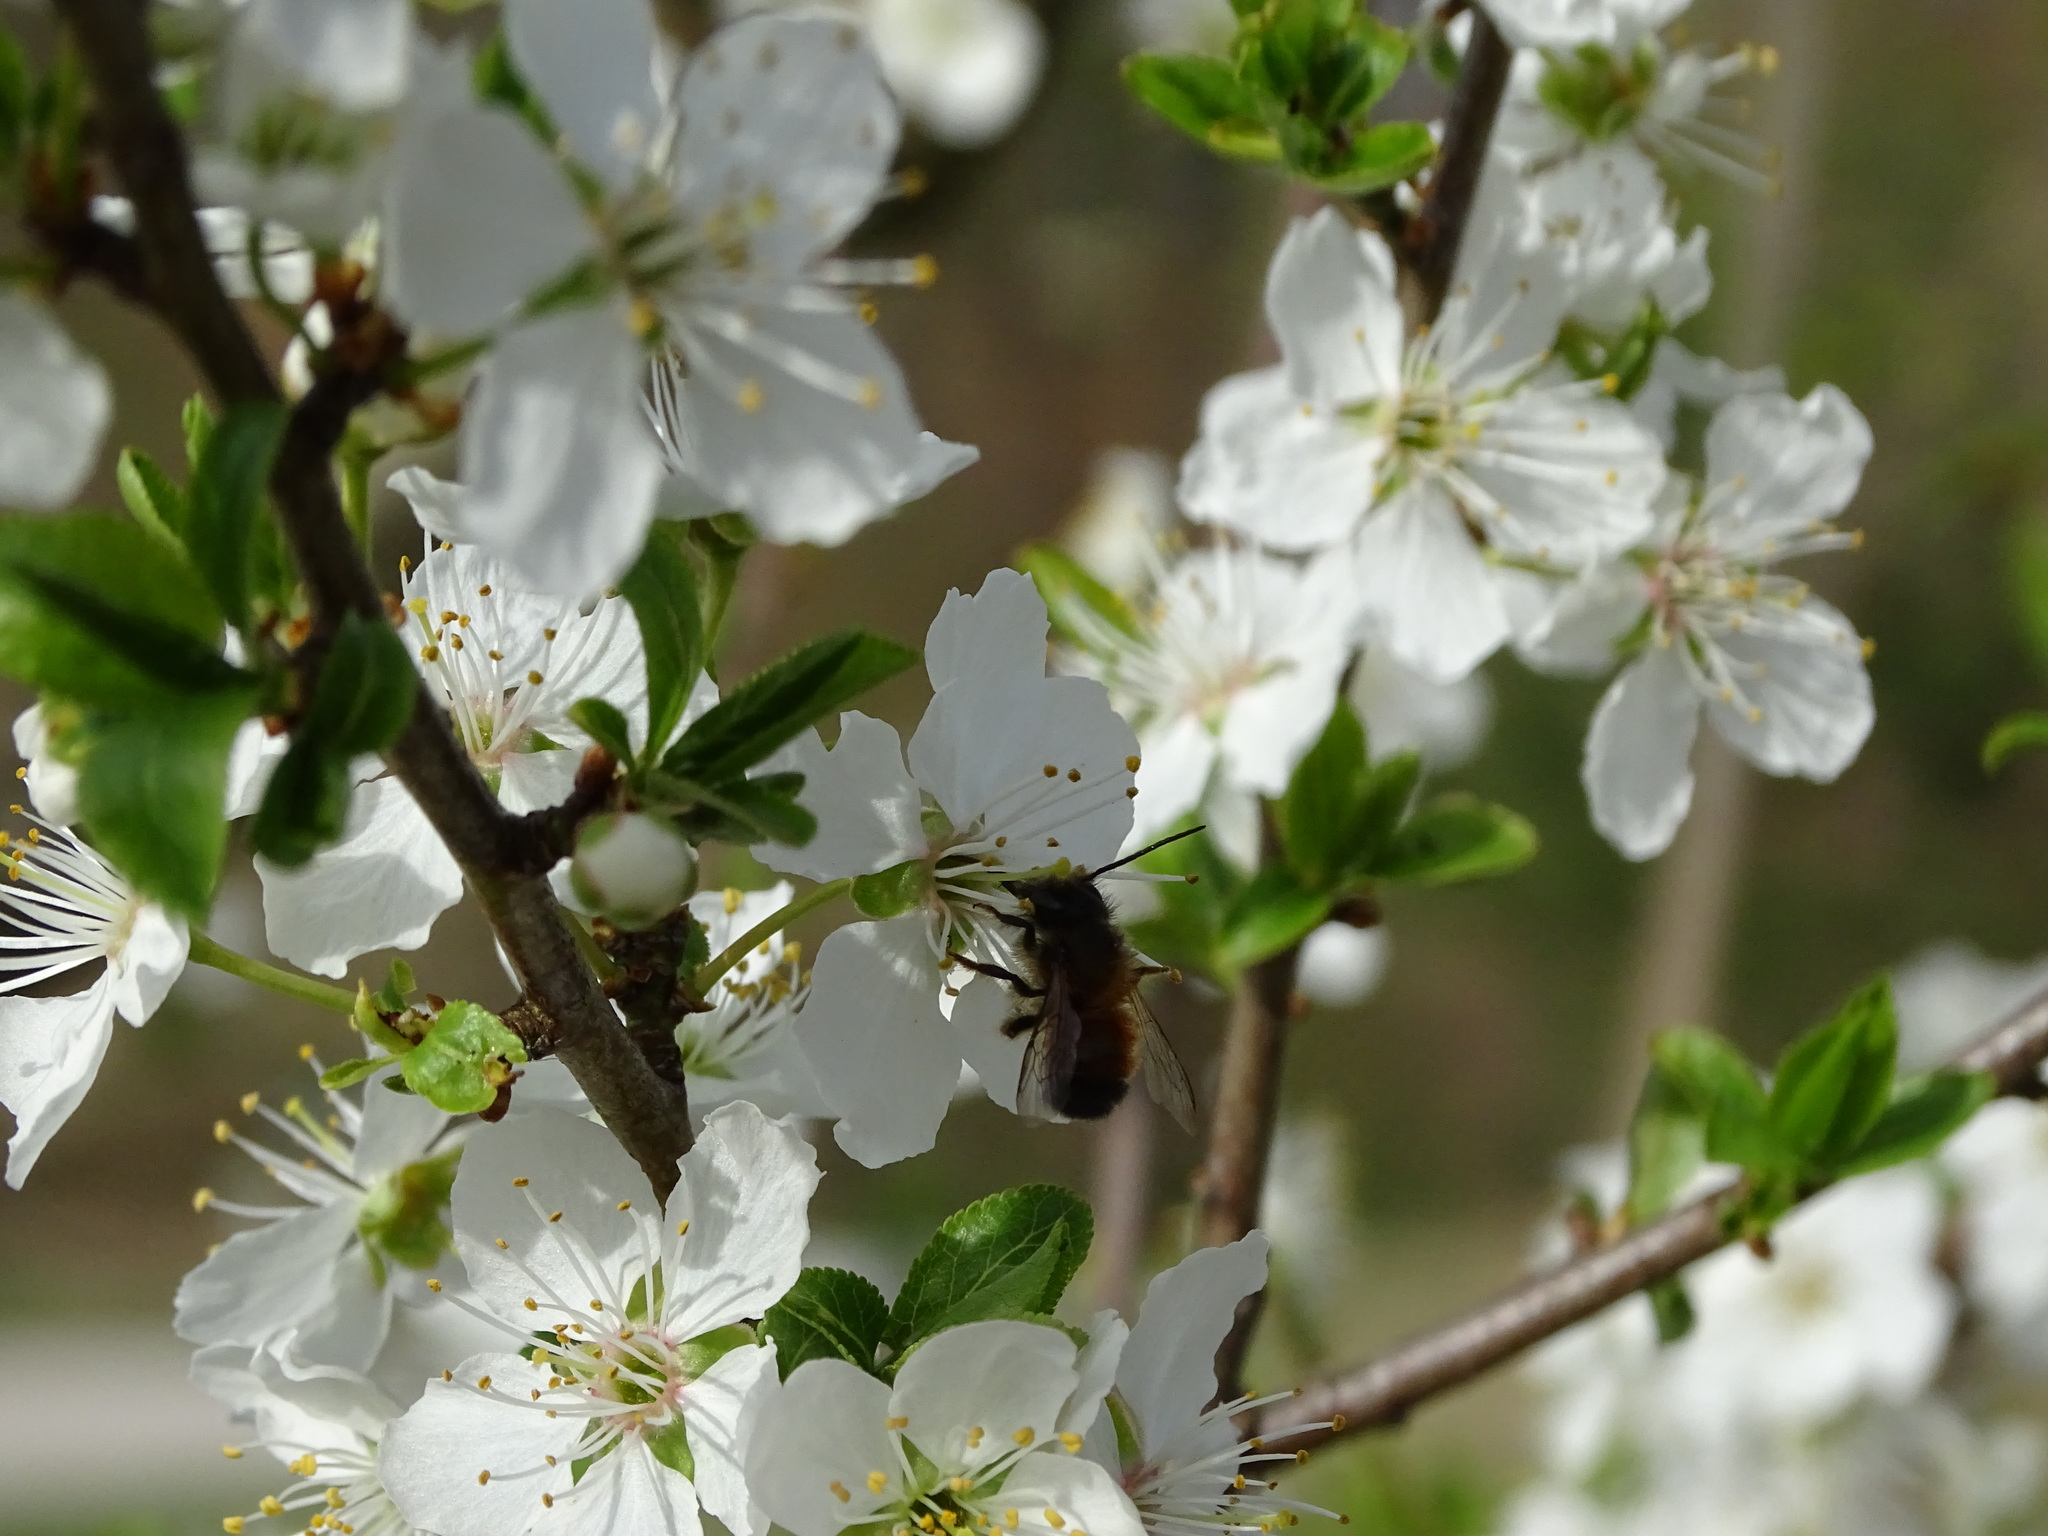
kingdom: Animalia
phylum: Arthropoda
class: Insecta
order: Hymenoptera
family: Megachilidae
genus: Osmia
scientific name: Osmia bicornis
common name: Red mason bee
